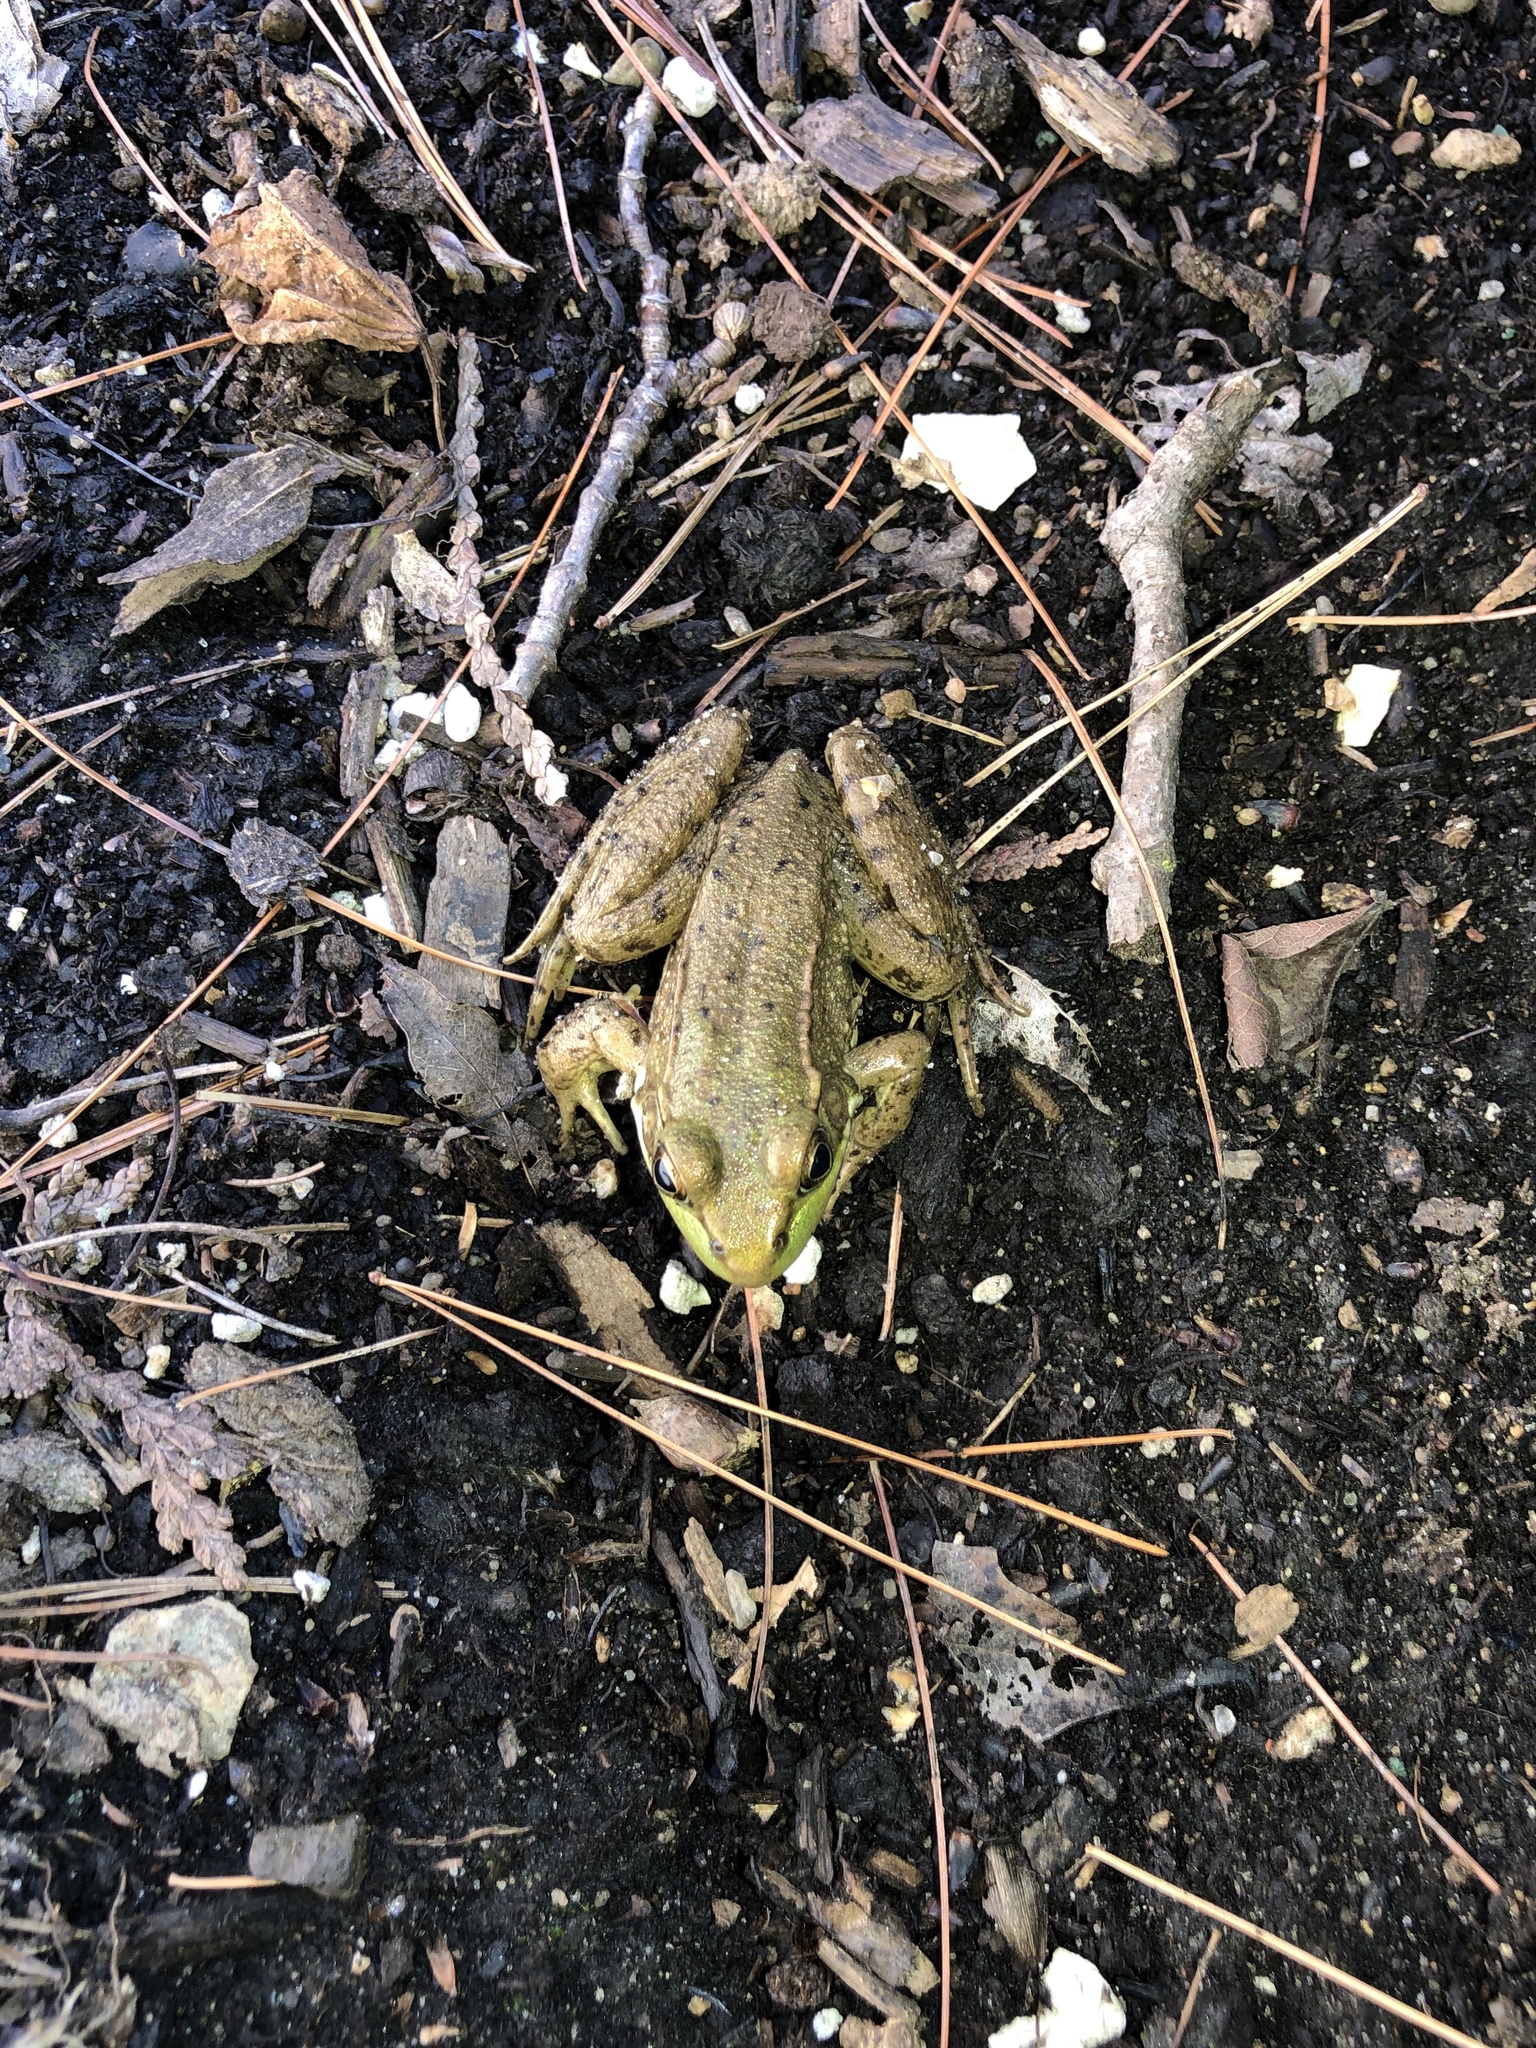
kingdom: Animalia
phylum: Chordata
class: Amphibia
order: Anura
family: Ranidae
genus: Lithobates
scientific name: Lithobates clamitans
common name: Green frog
